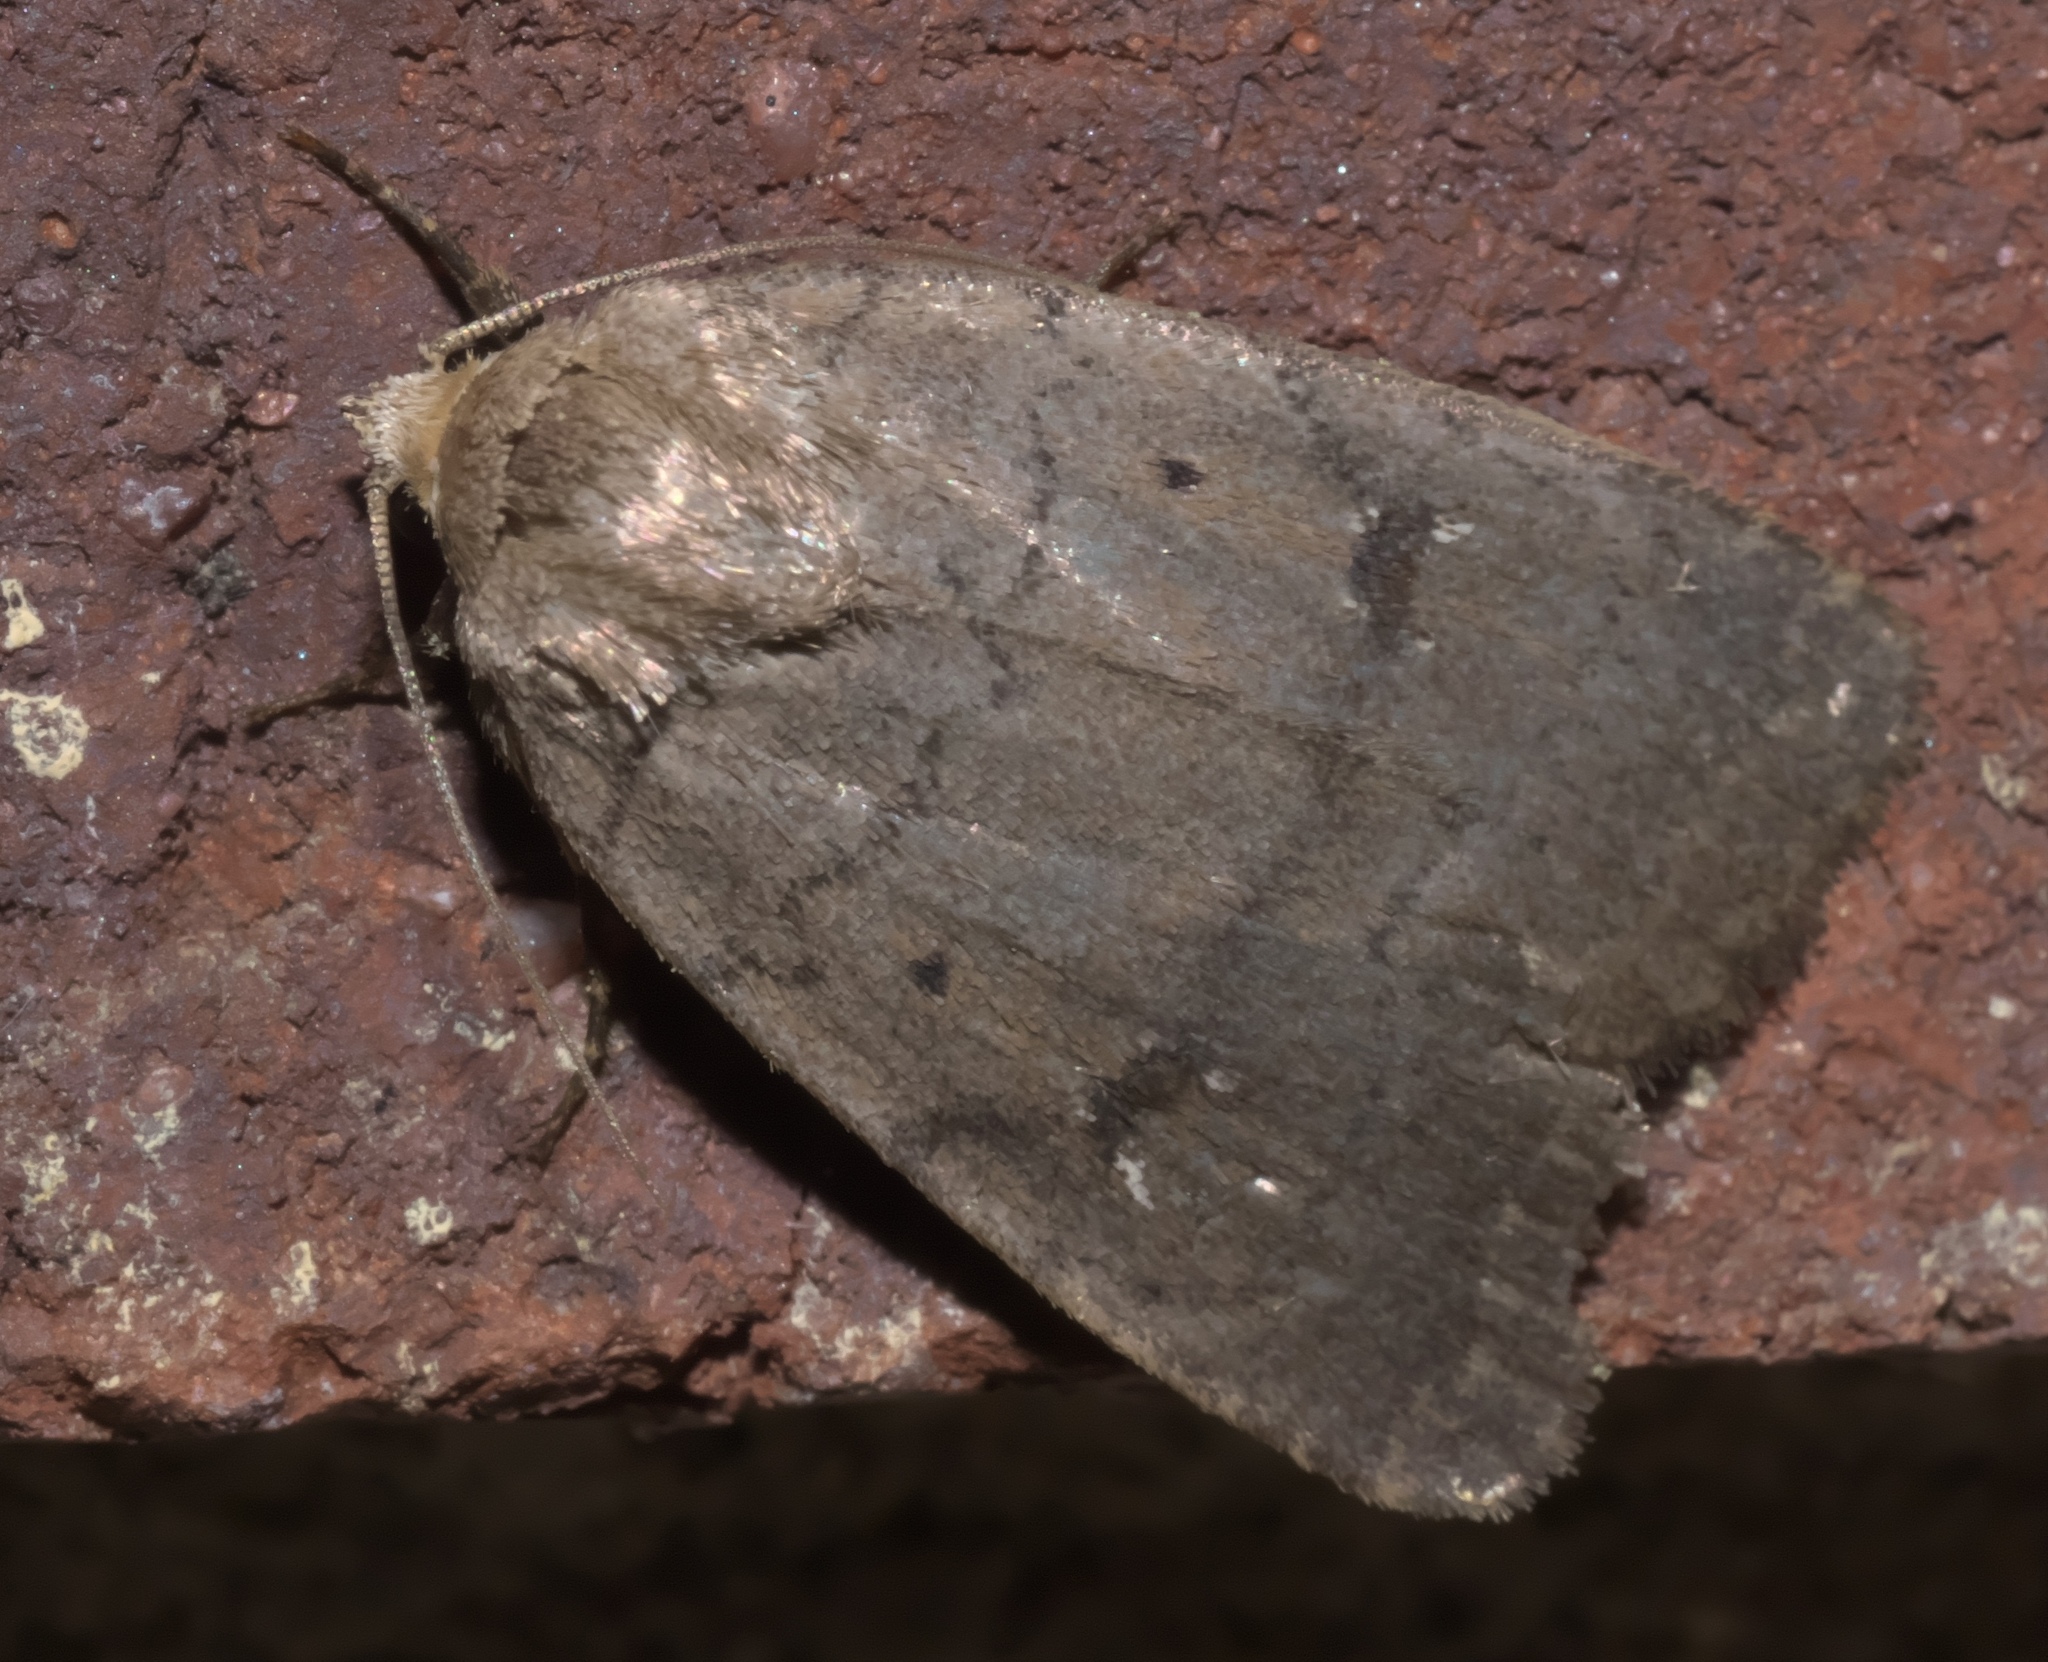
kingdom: Animalia
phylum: Arthropoda
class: Insecta
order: Lepidoptera
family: Noctuidae
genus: Athetis
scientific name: Athetis tarda
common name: Slowpoke moth
